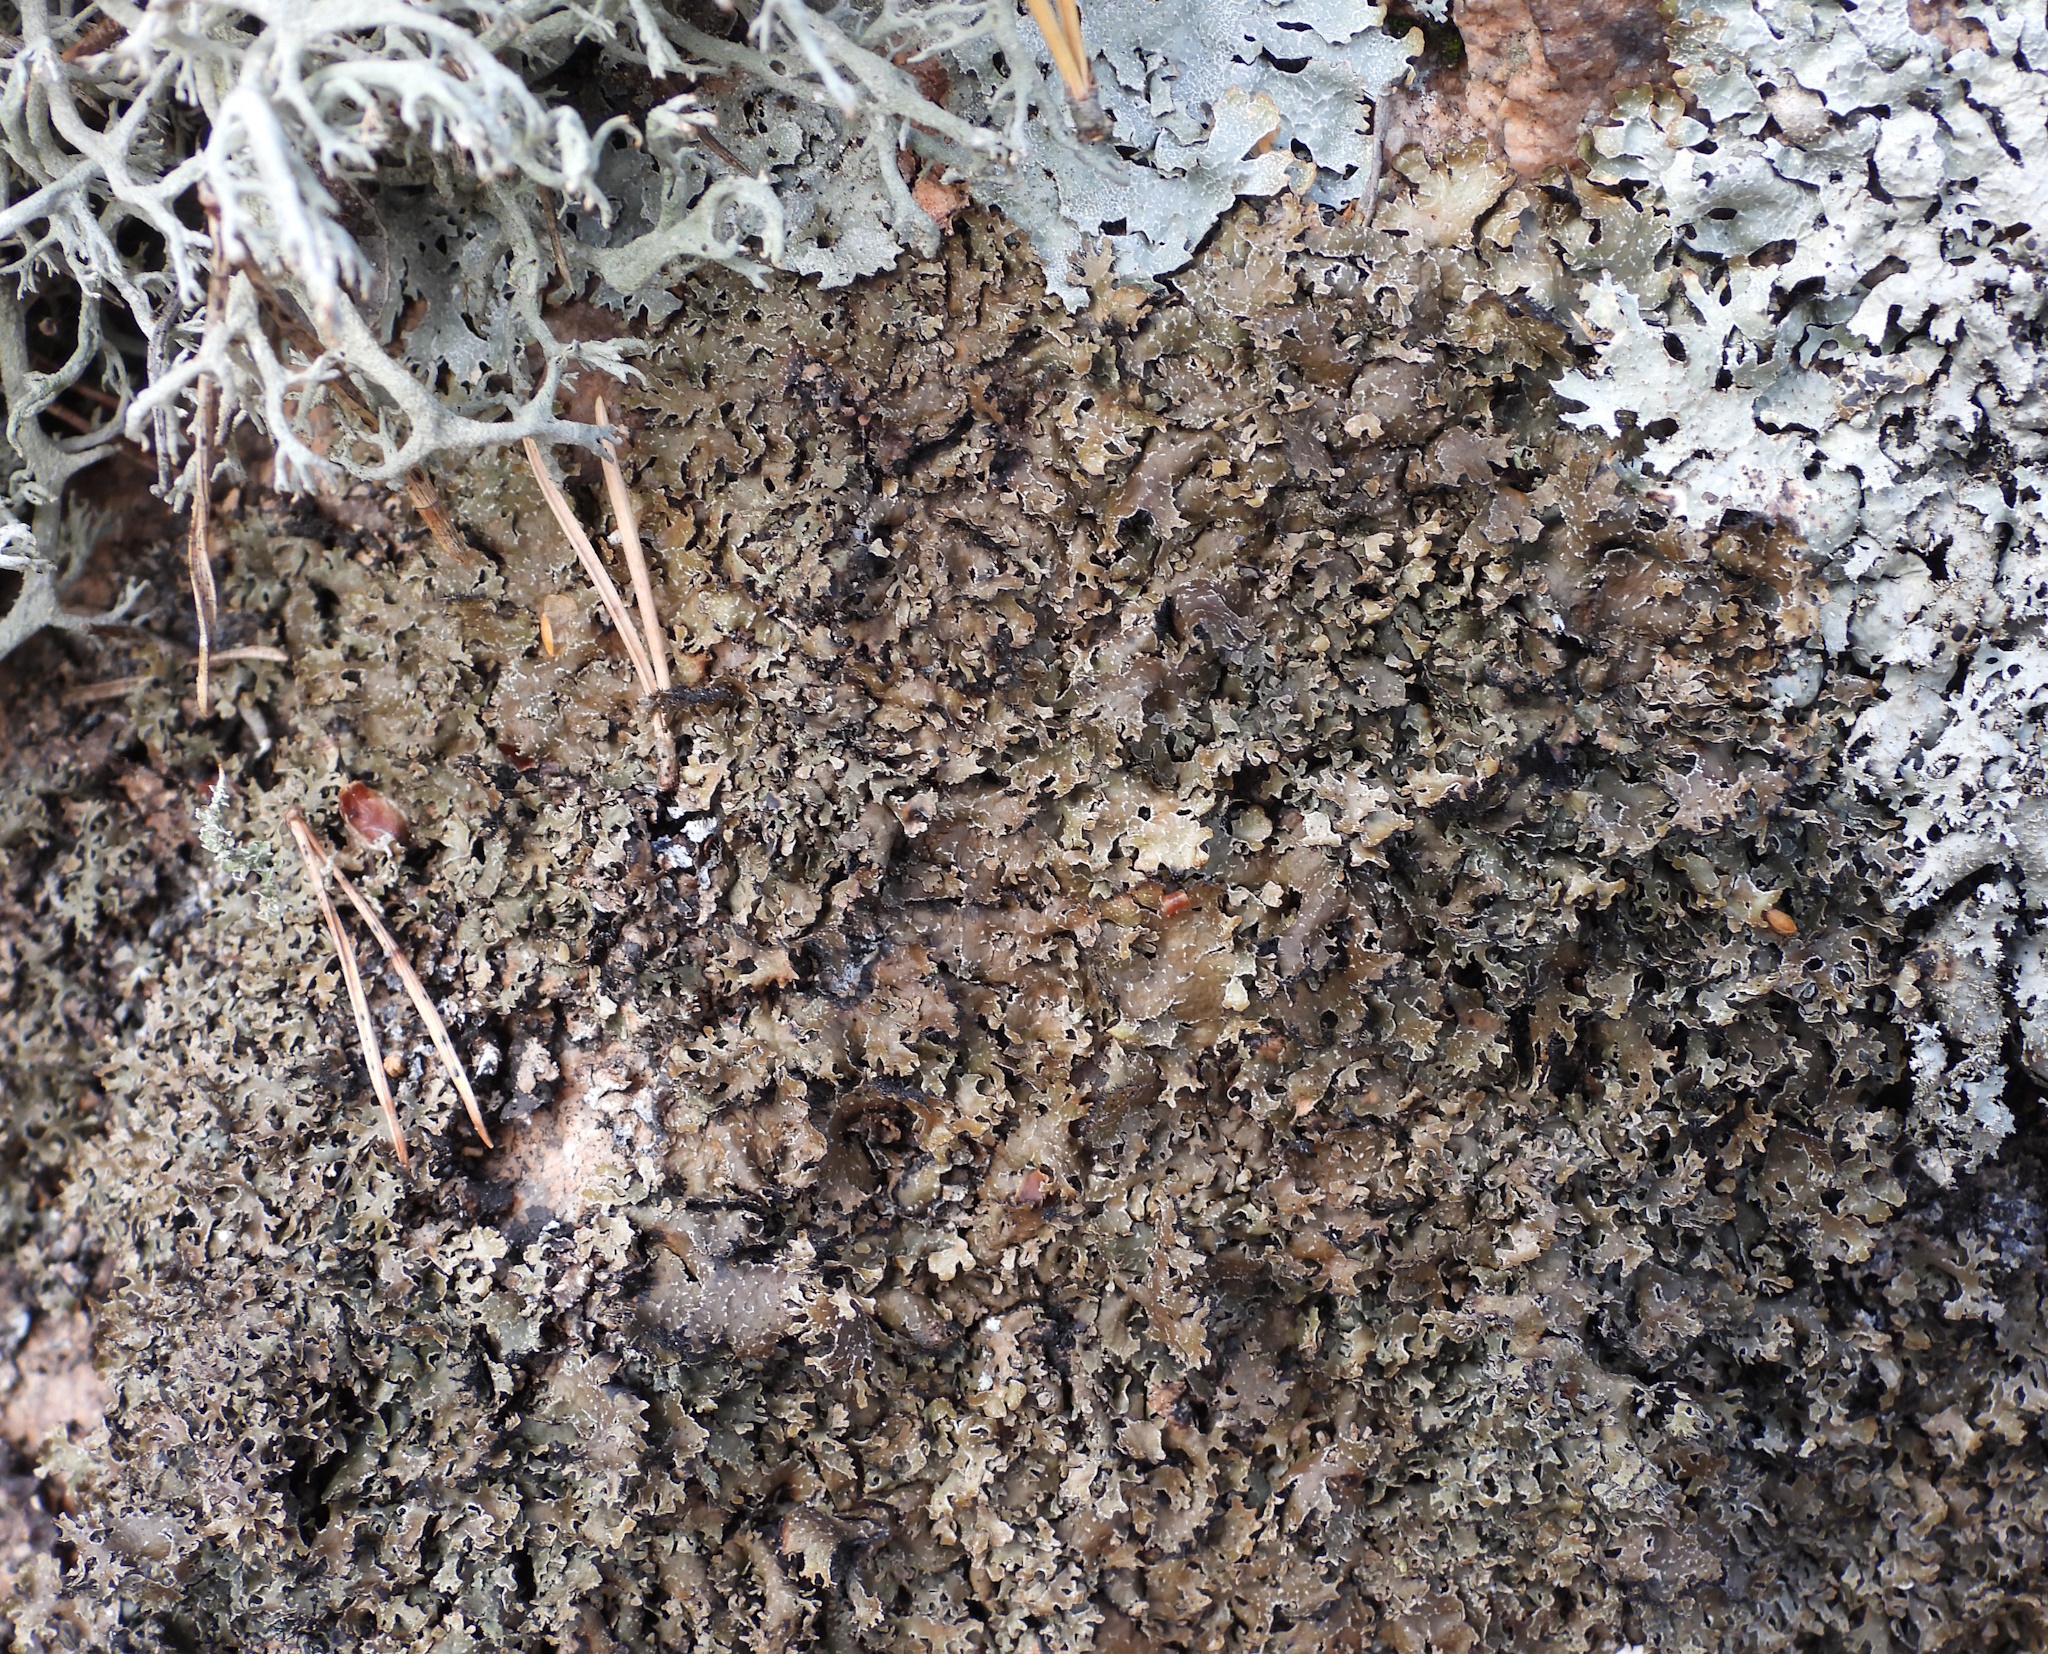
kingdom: Fungi
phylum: Ascomycota
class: Lecanoromycetes
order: Lecanorales
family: Parmeliaceae
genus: Parmelia
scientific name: Parmelia omphalodes
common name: Smoky crottle
